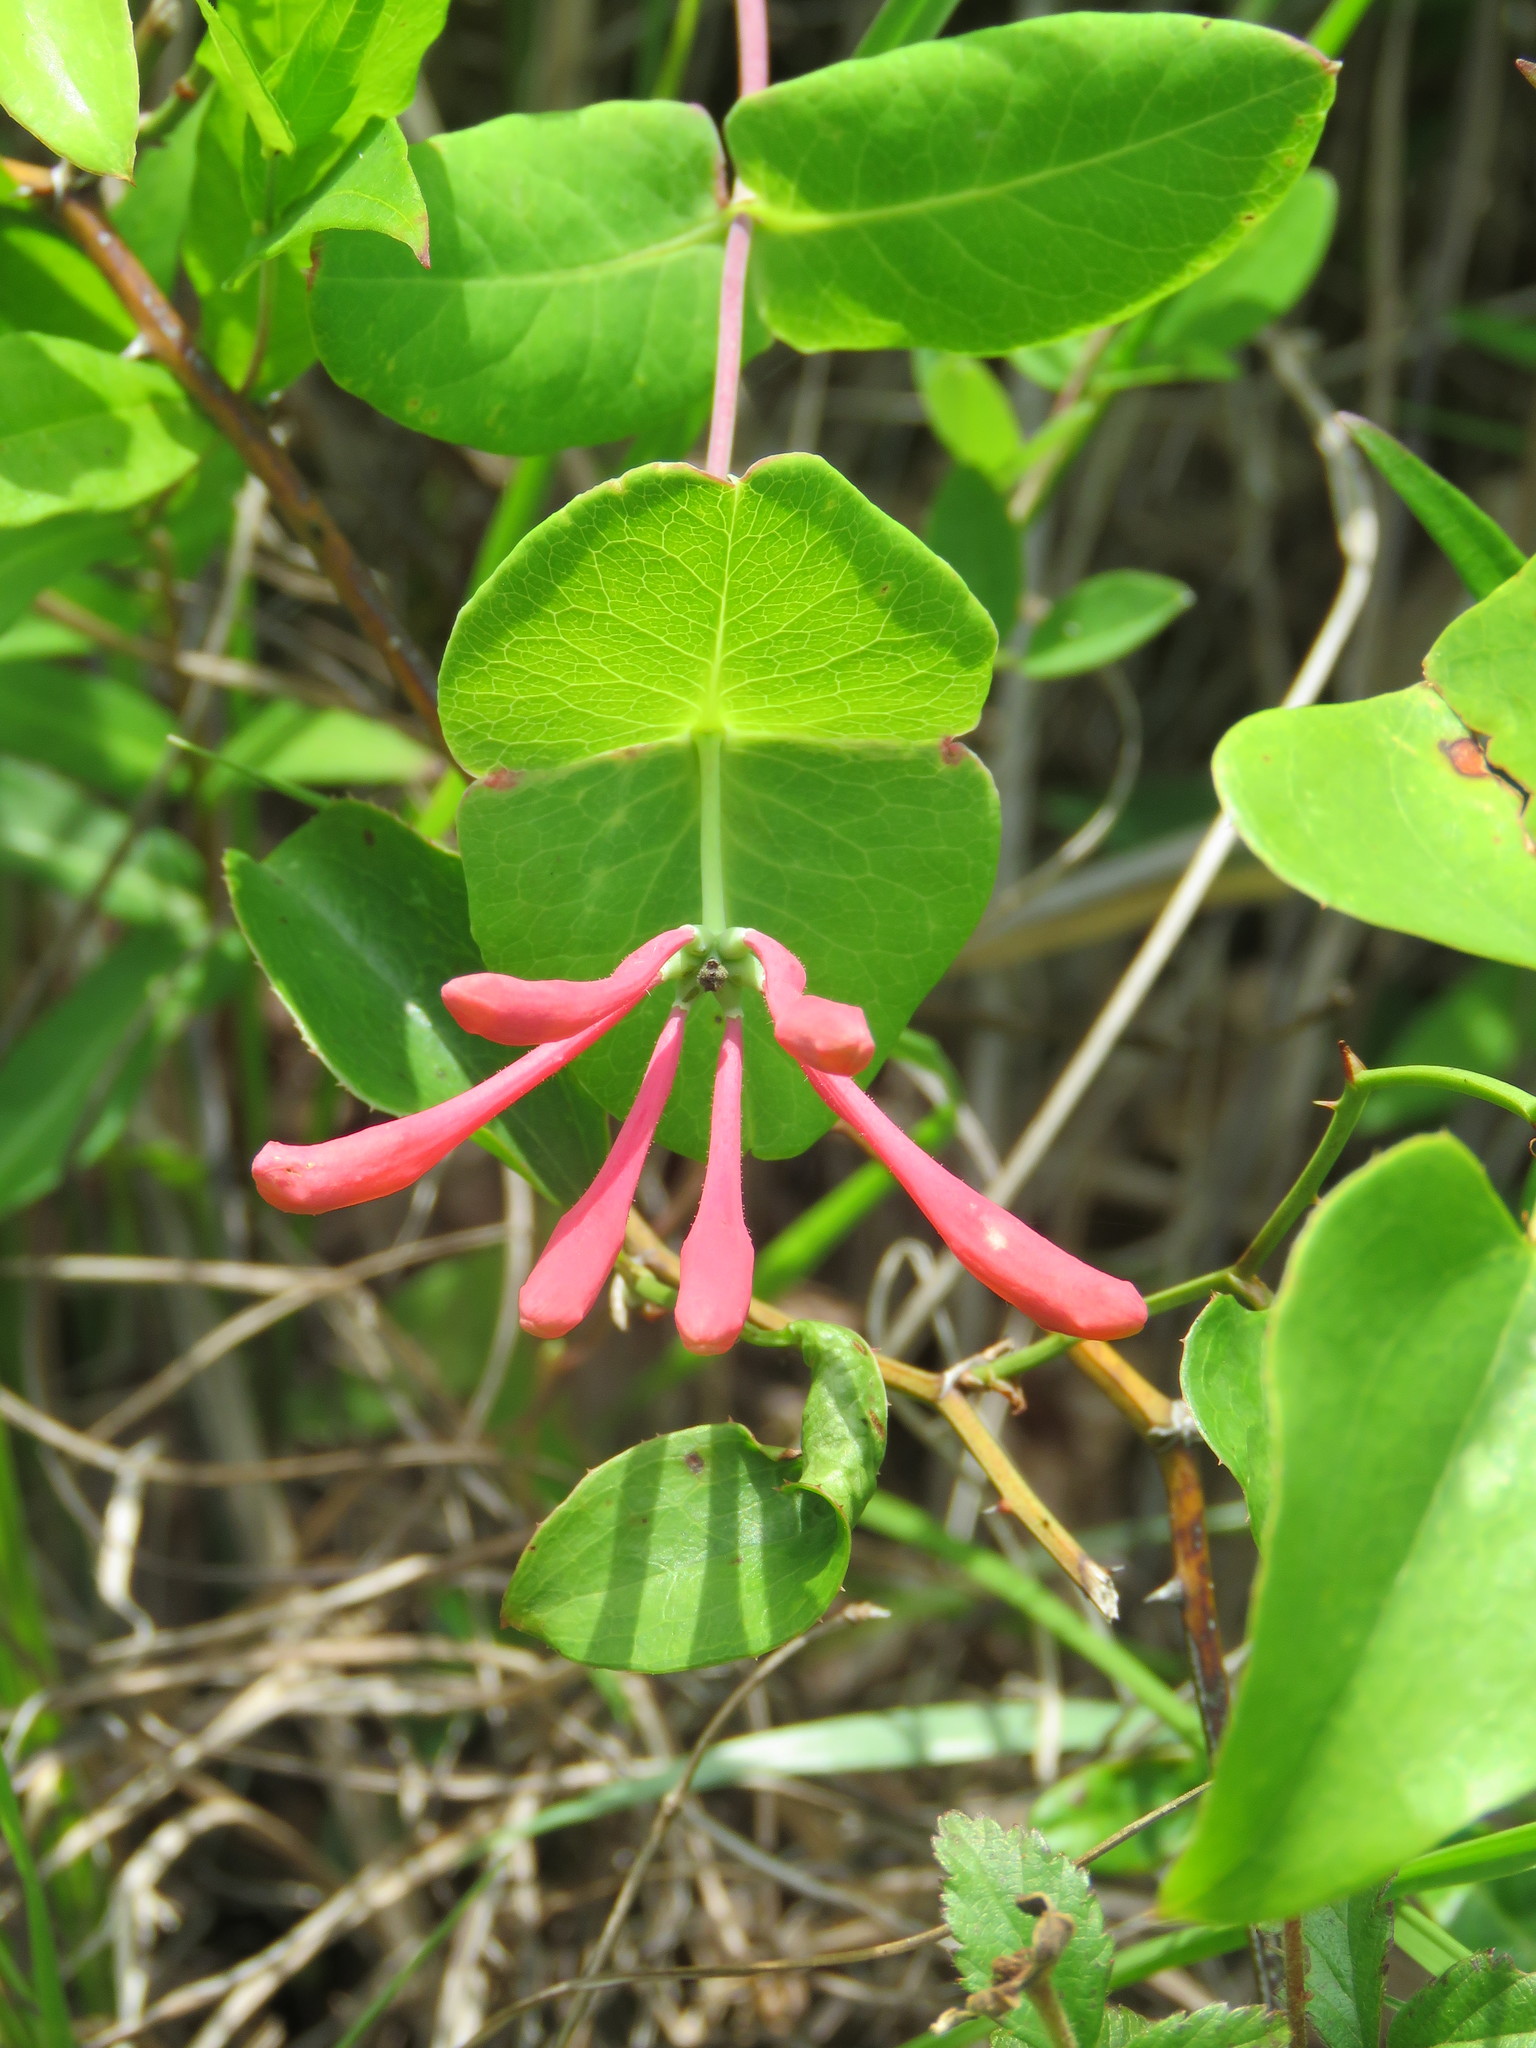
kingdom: Plantae
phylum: Tracheophyta
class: Magnoliopsida
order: Dipsacales
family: Caprifoliaceae
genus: Lonicera
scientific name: Lonicera sempervirens
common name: Coral honeysuckle
